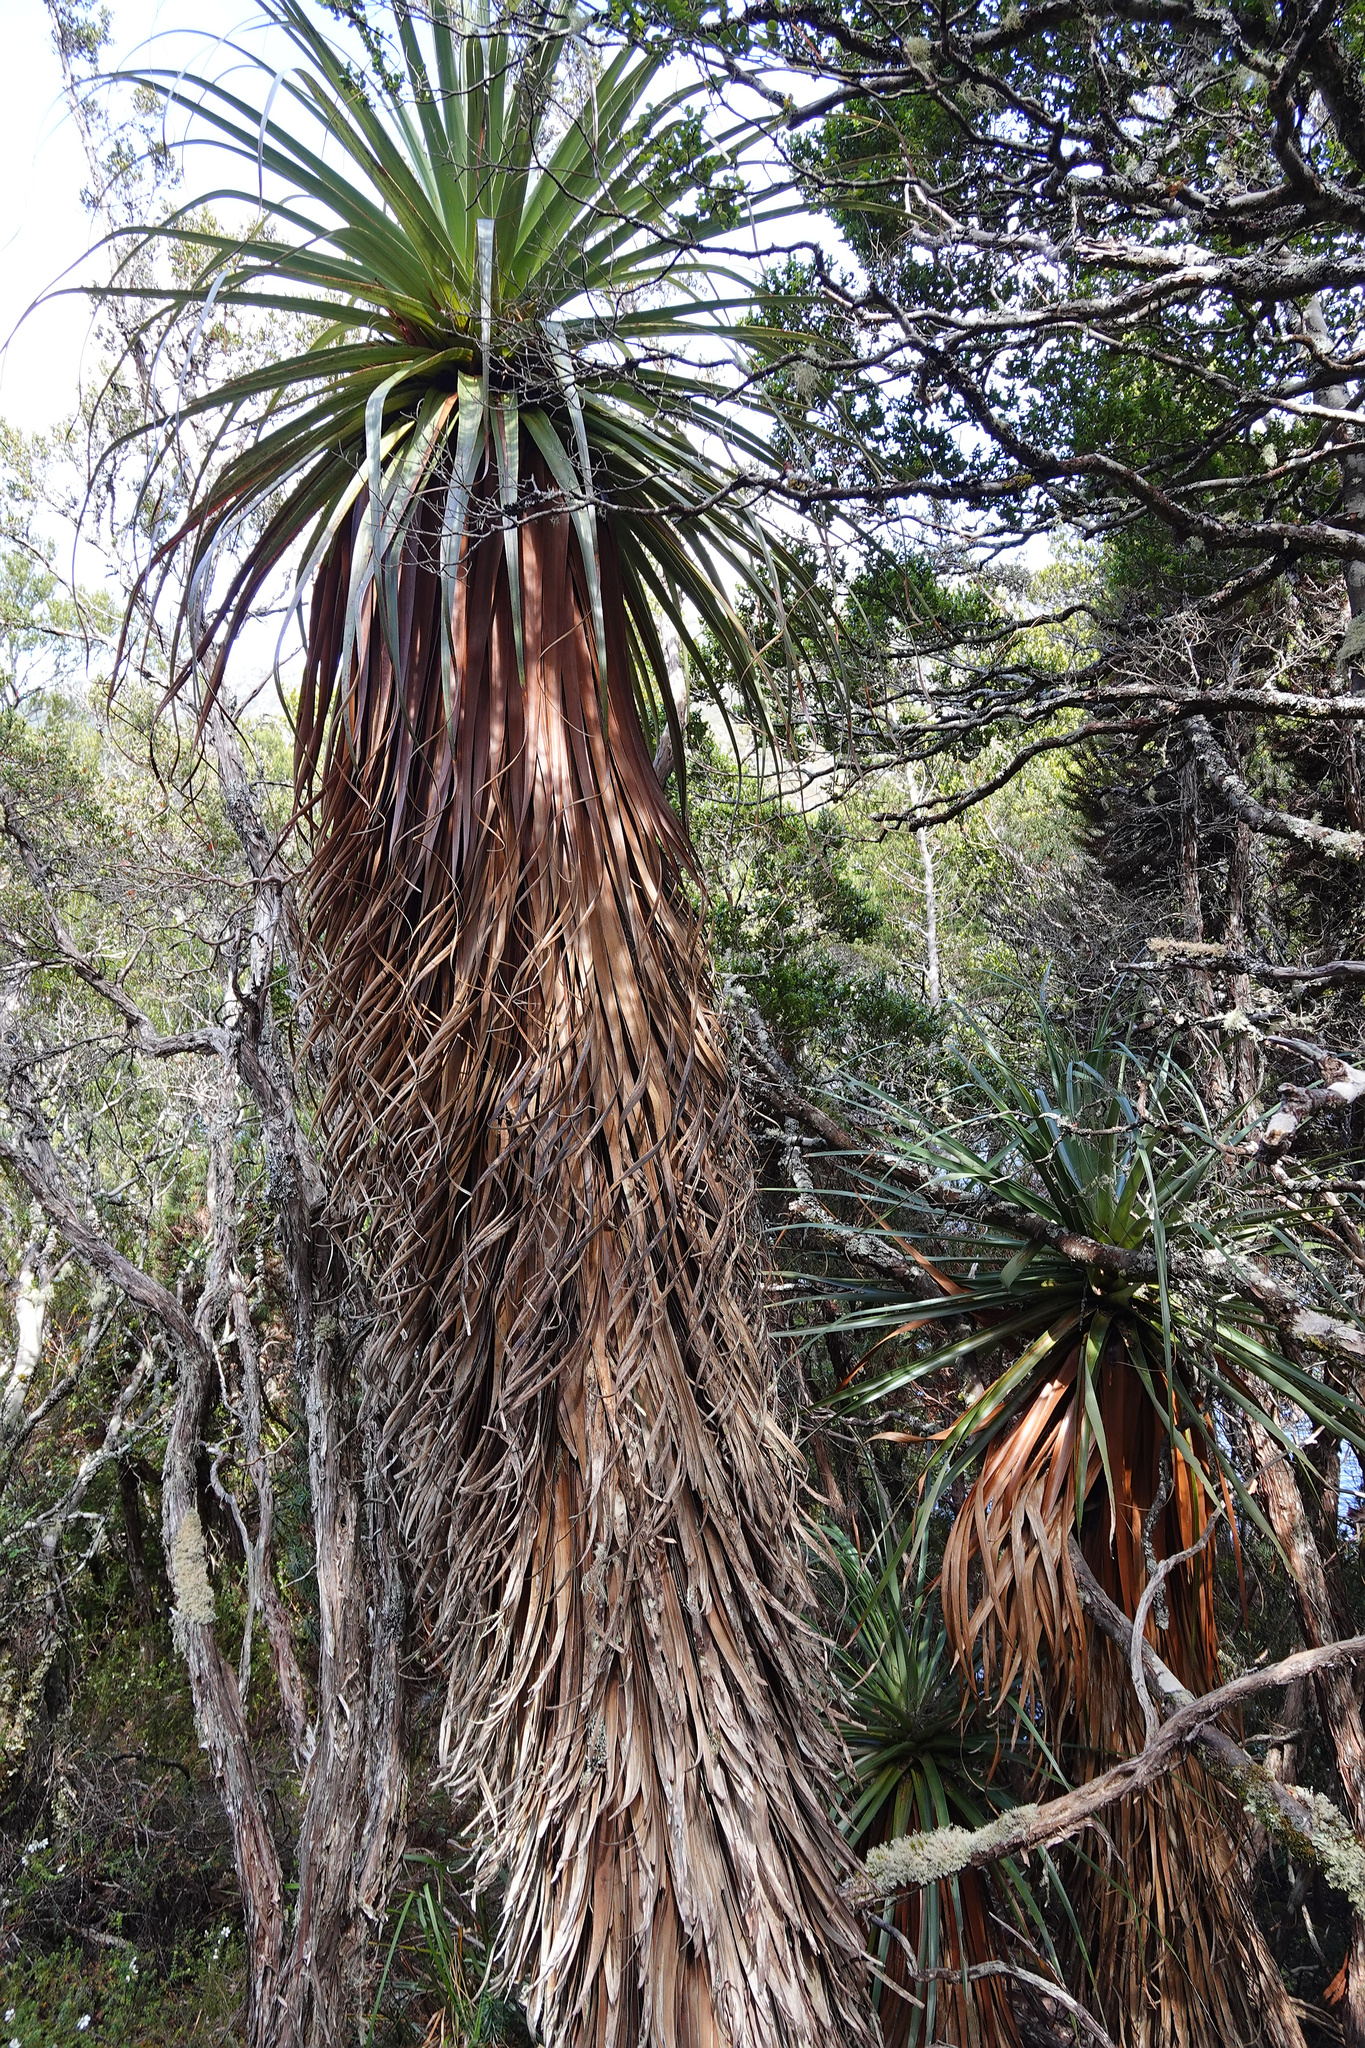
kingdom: Plantae
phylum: Tracheophyta
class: Magnoliopsida
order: Ericales
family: Ericaceae
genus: Dracophyllum
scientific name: Dracophyllum pandanifolium
